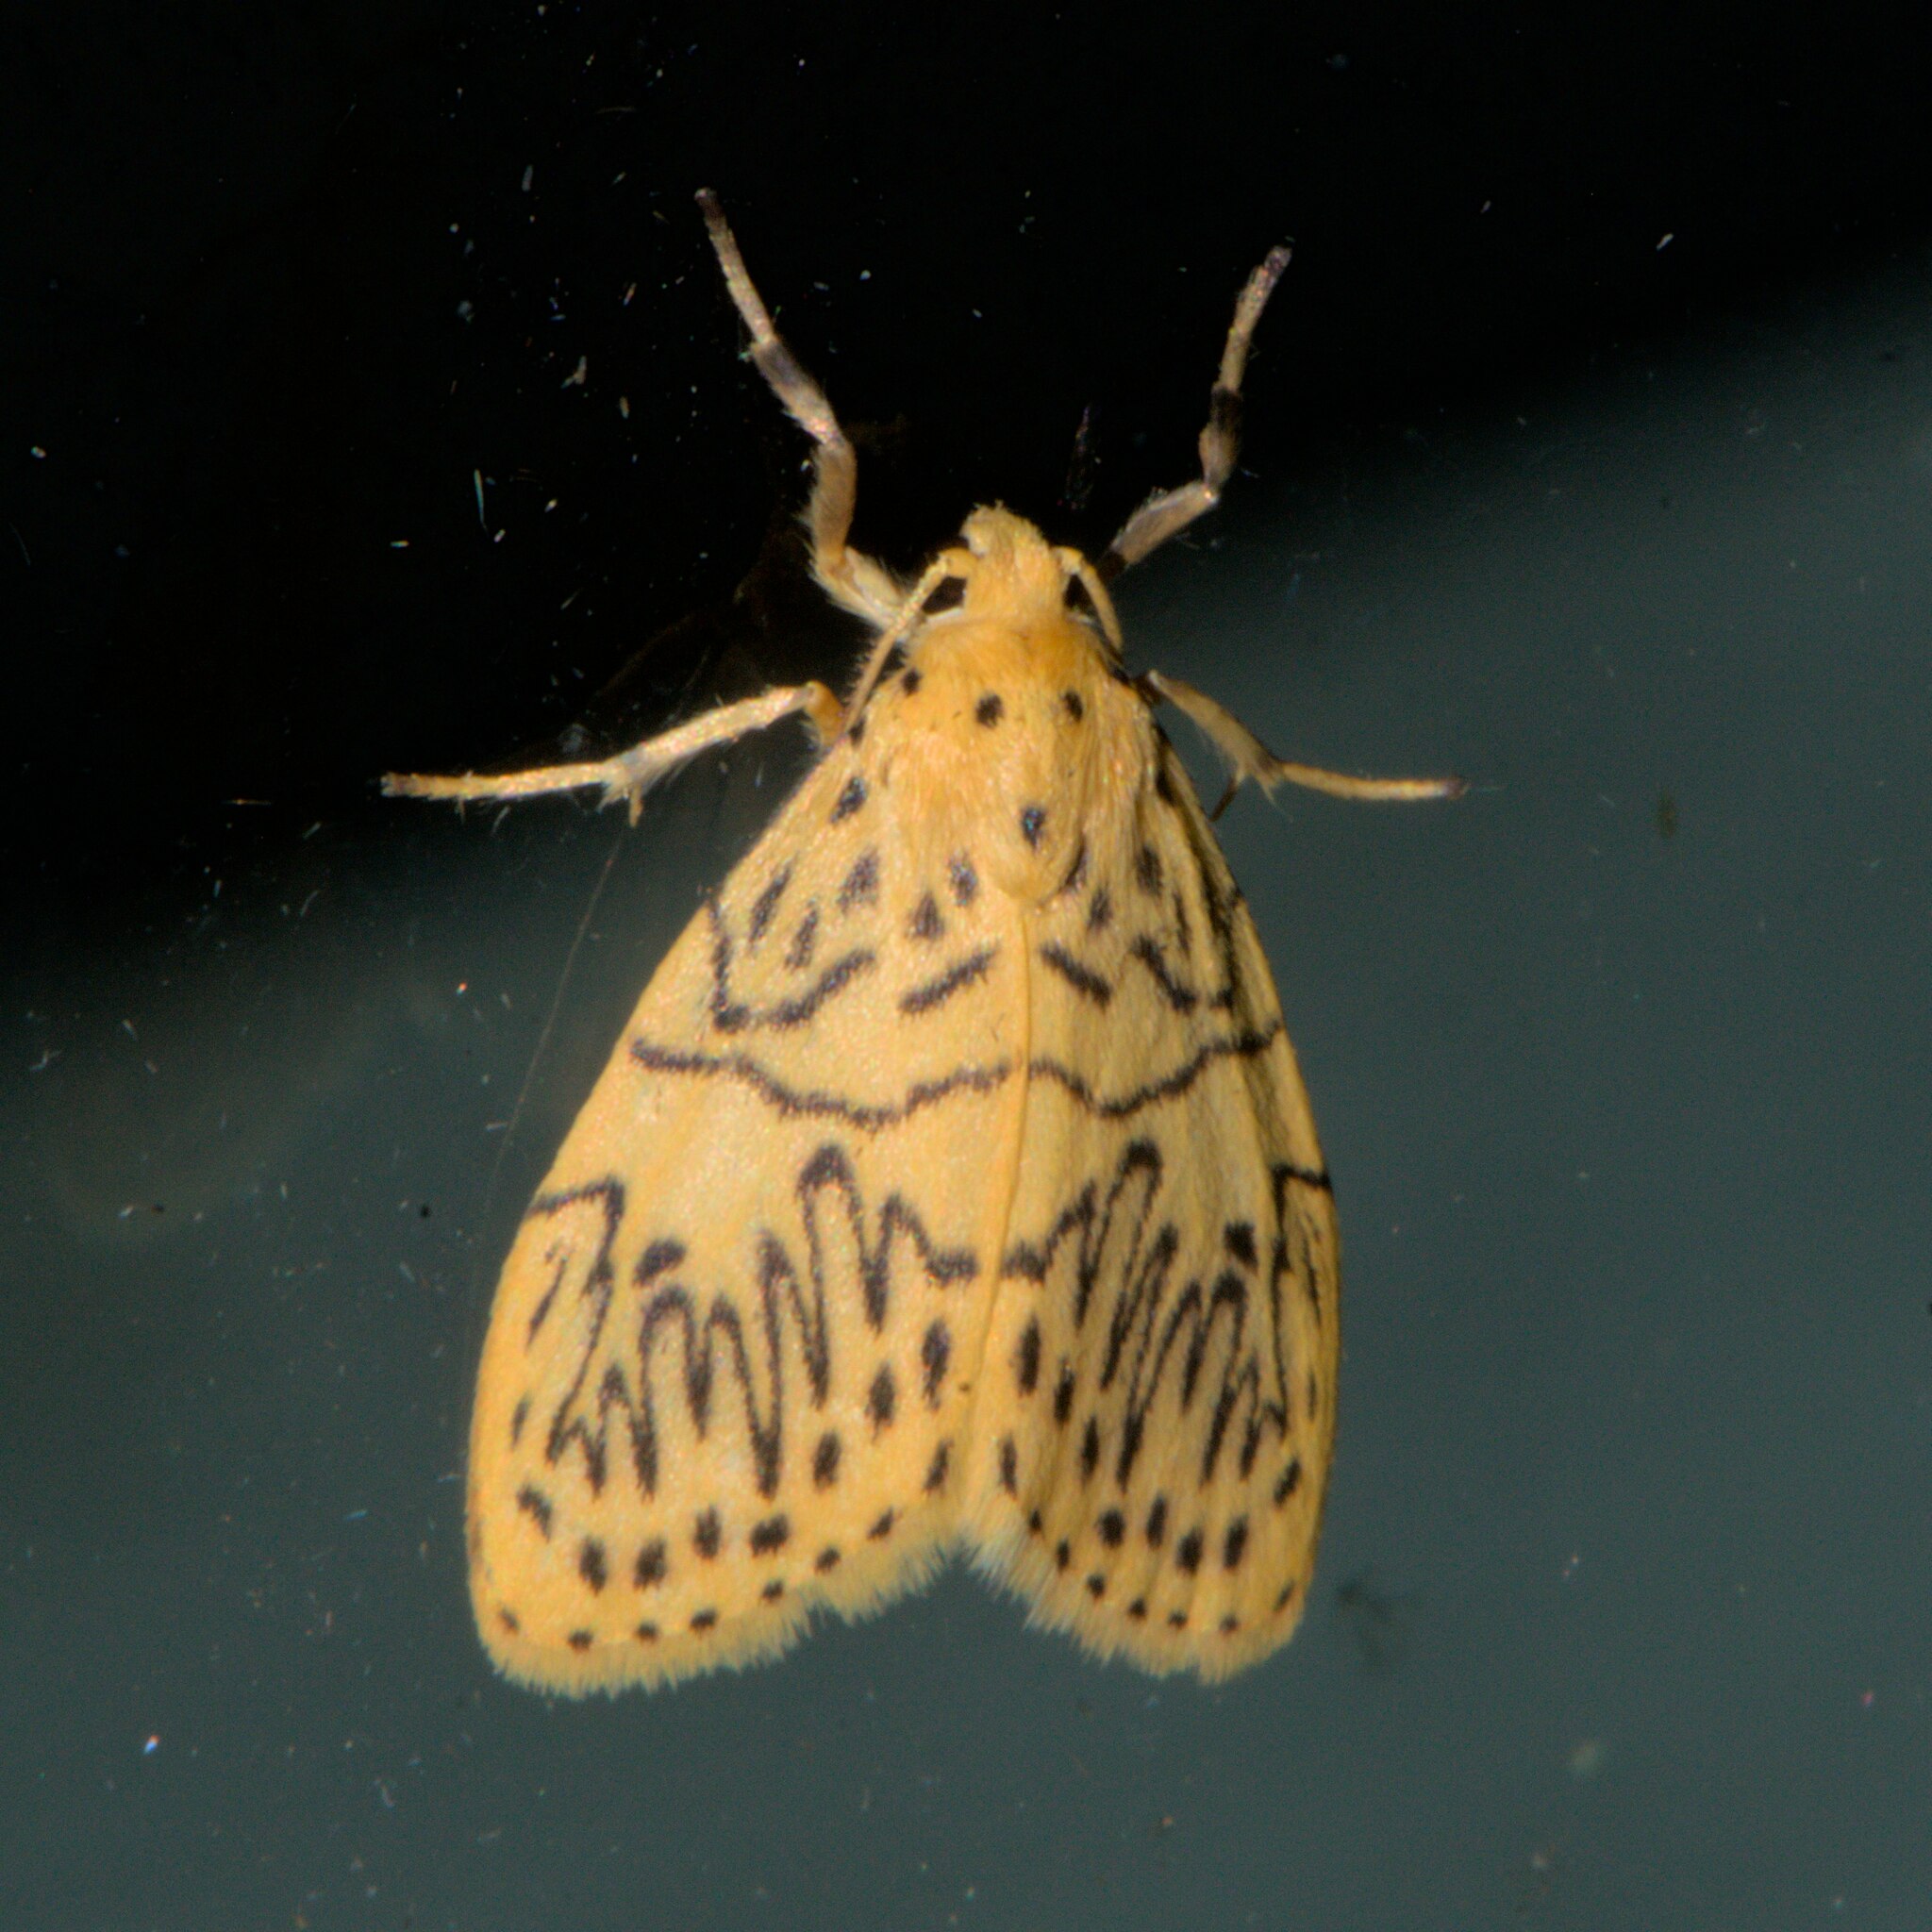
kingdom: Animalia
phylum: Arthropoda
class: Insecta
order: Lepidoptera
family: Erebidae
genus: Miltochrista
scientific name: Miltochrista undulosa
